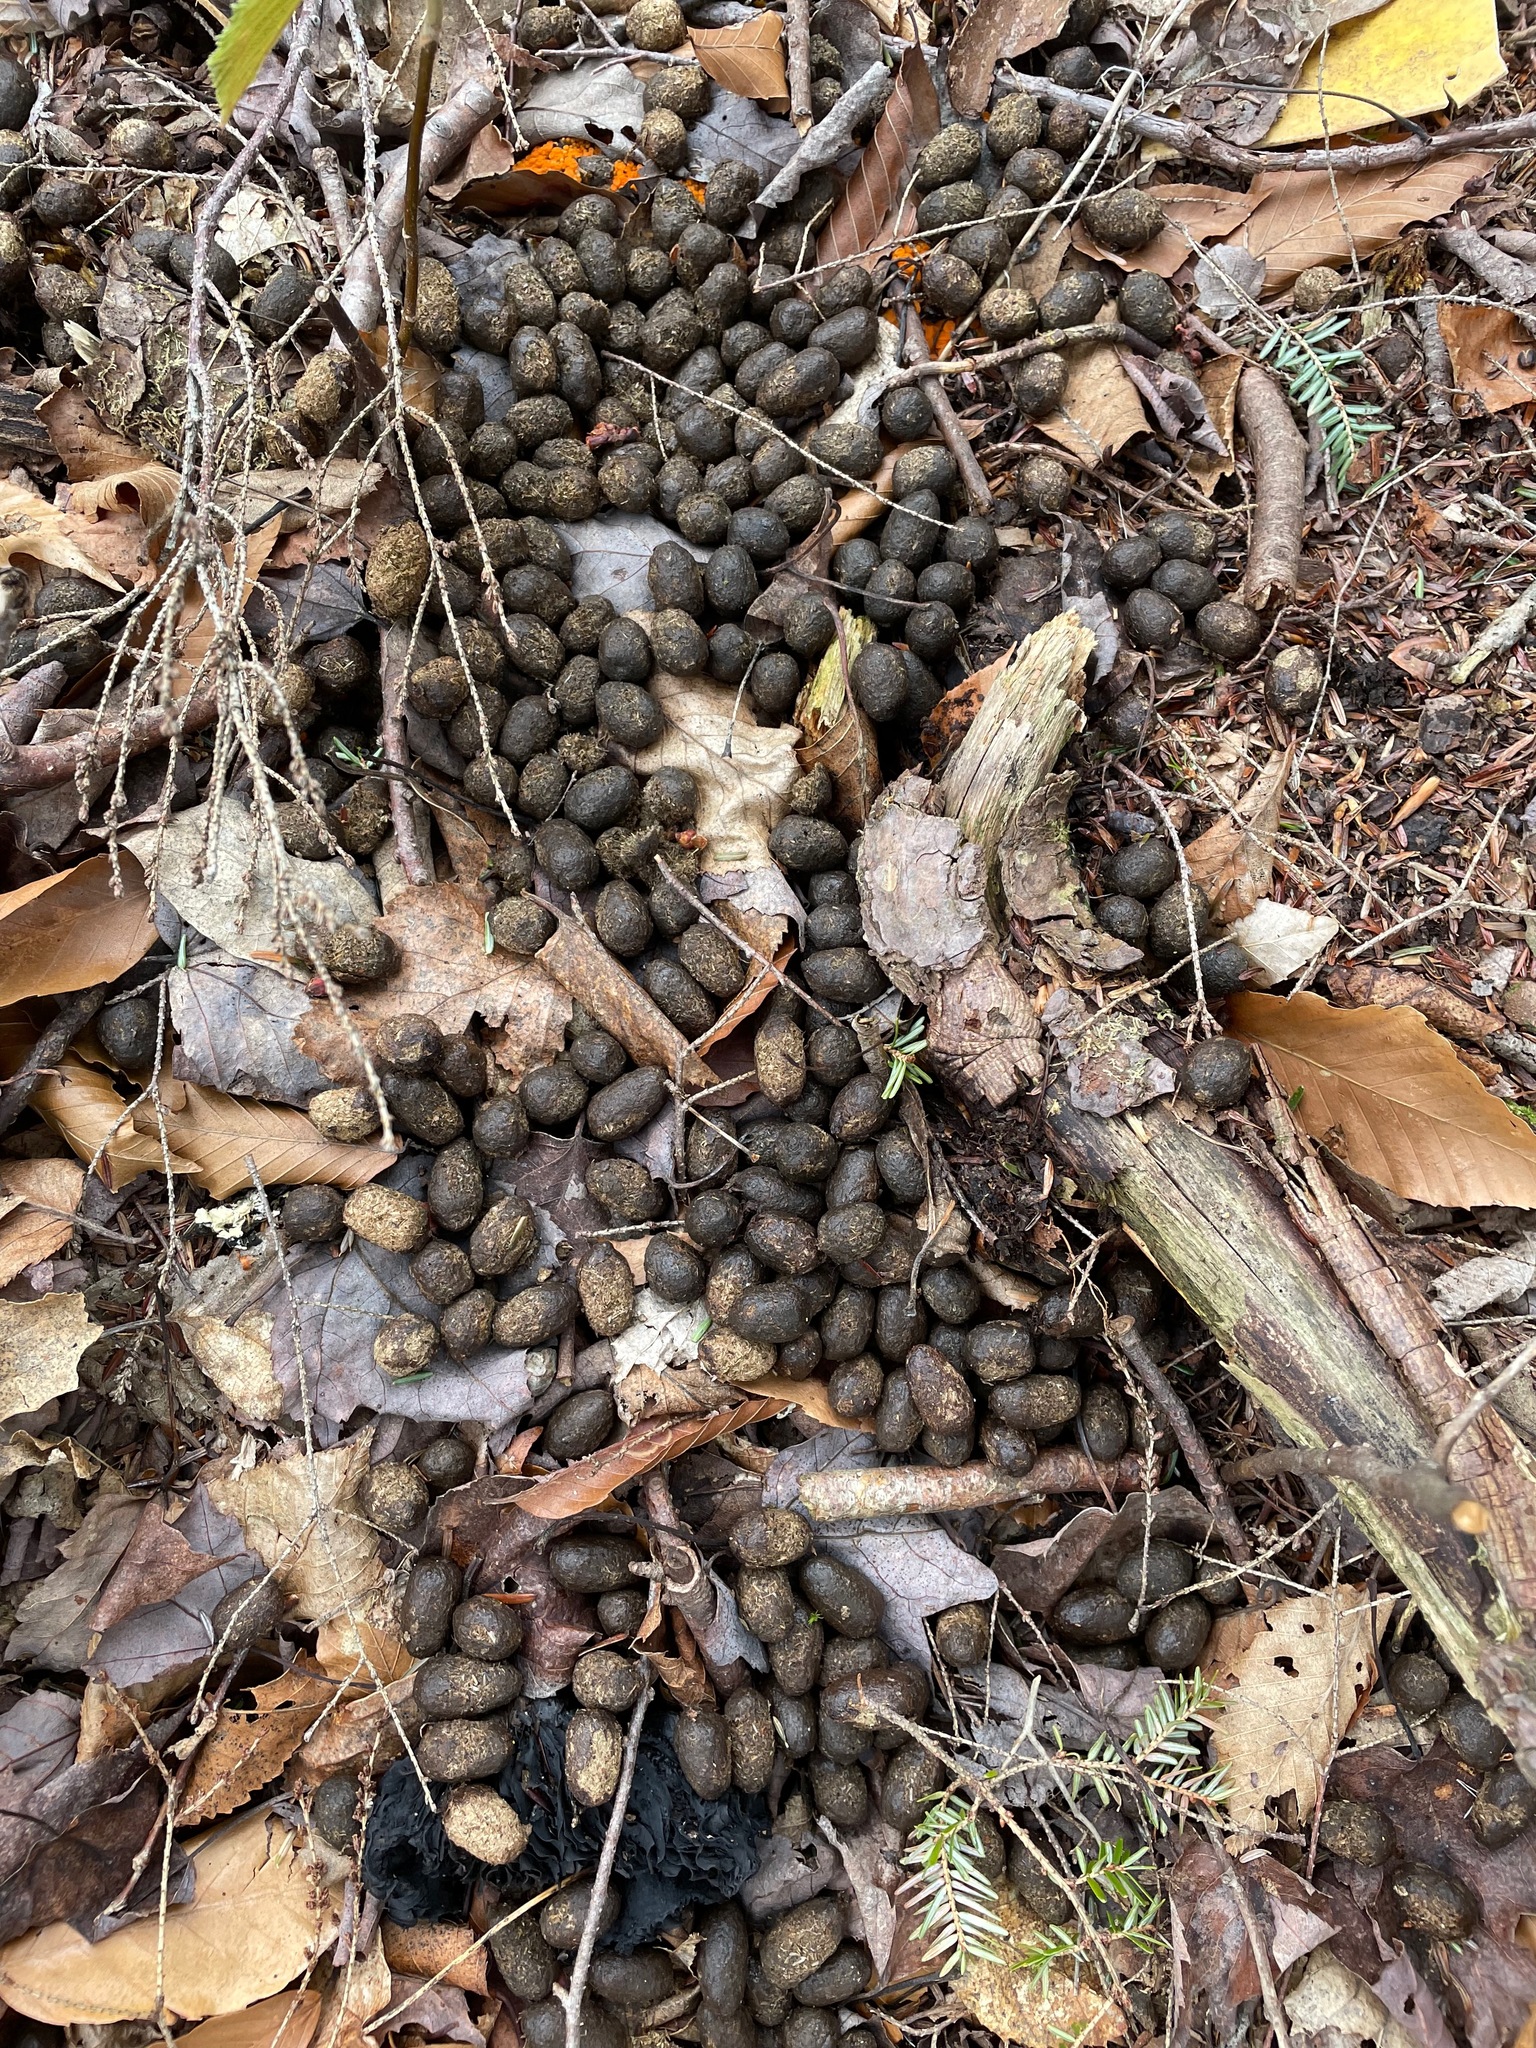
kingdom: Animalia
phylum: Chordata
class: Mammalia
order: Artiodactyla
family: Cervidae
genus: Odocoileus
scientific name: Odocoileus virginianus
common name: White-tailed deer
